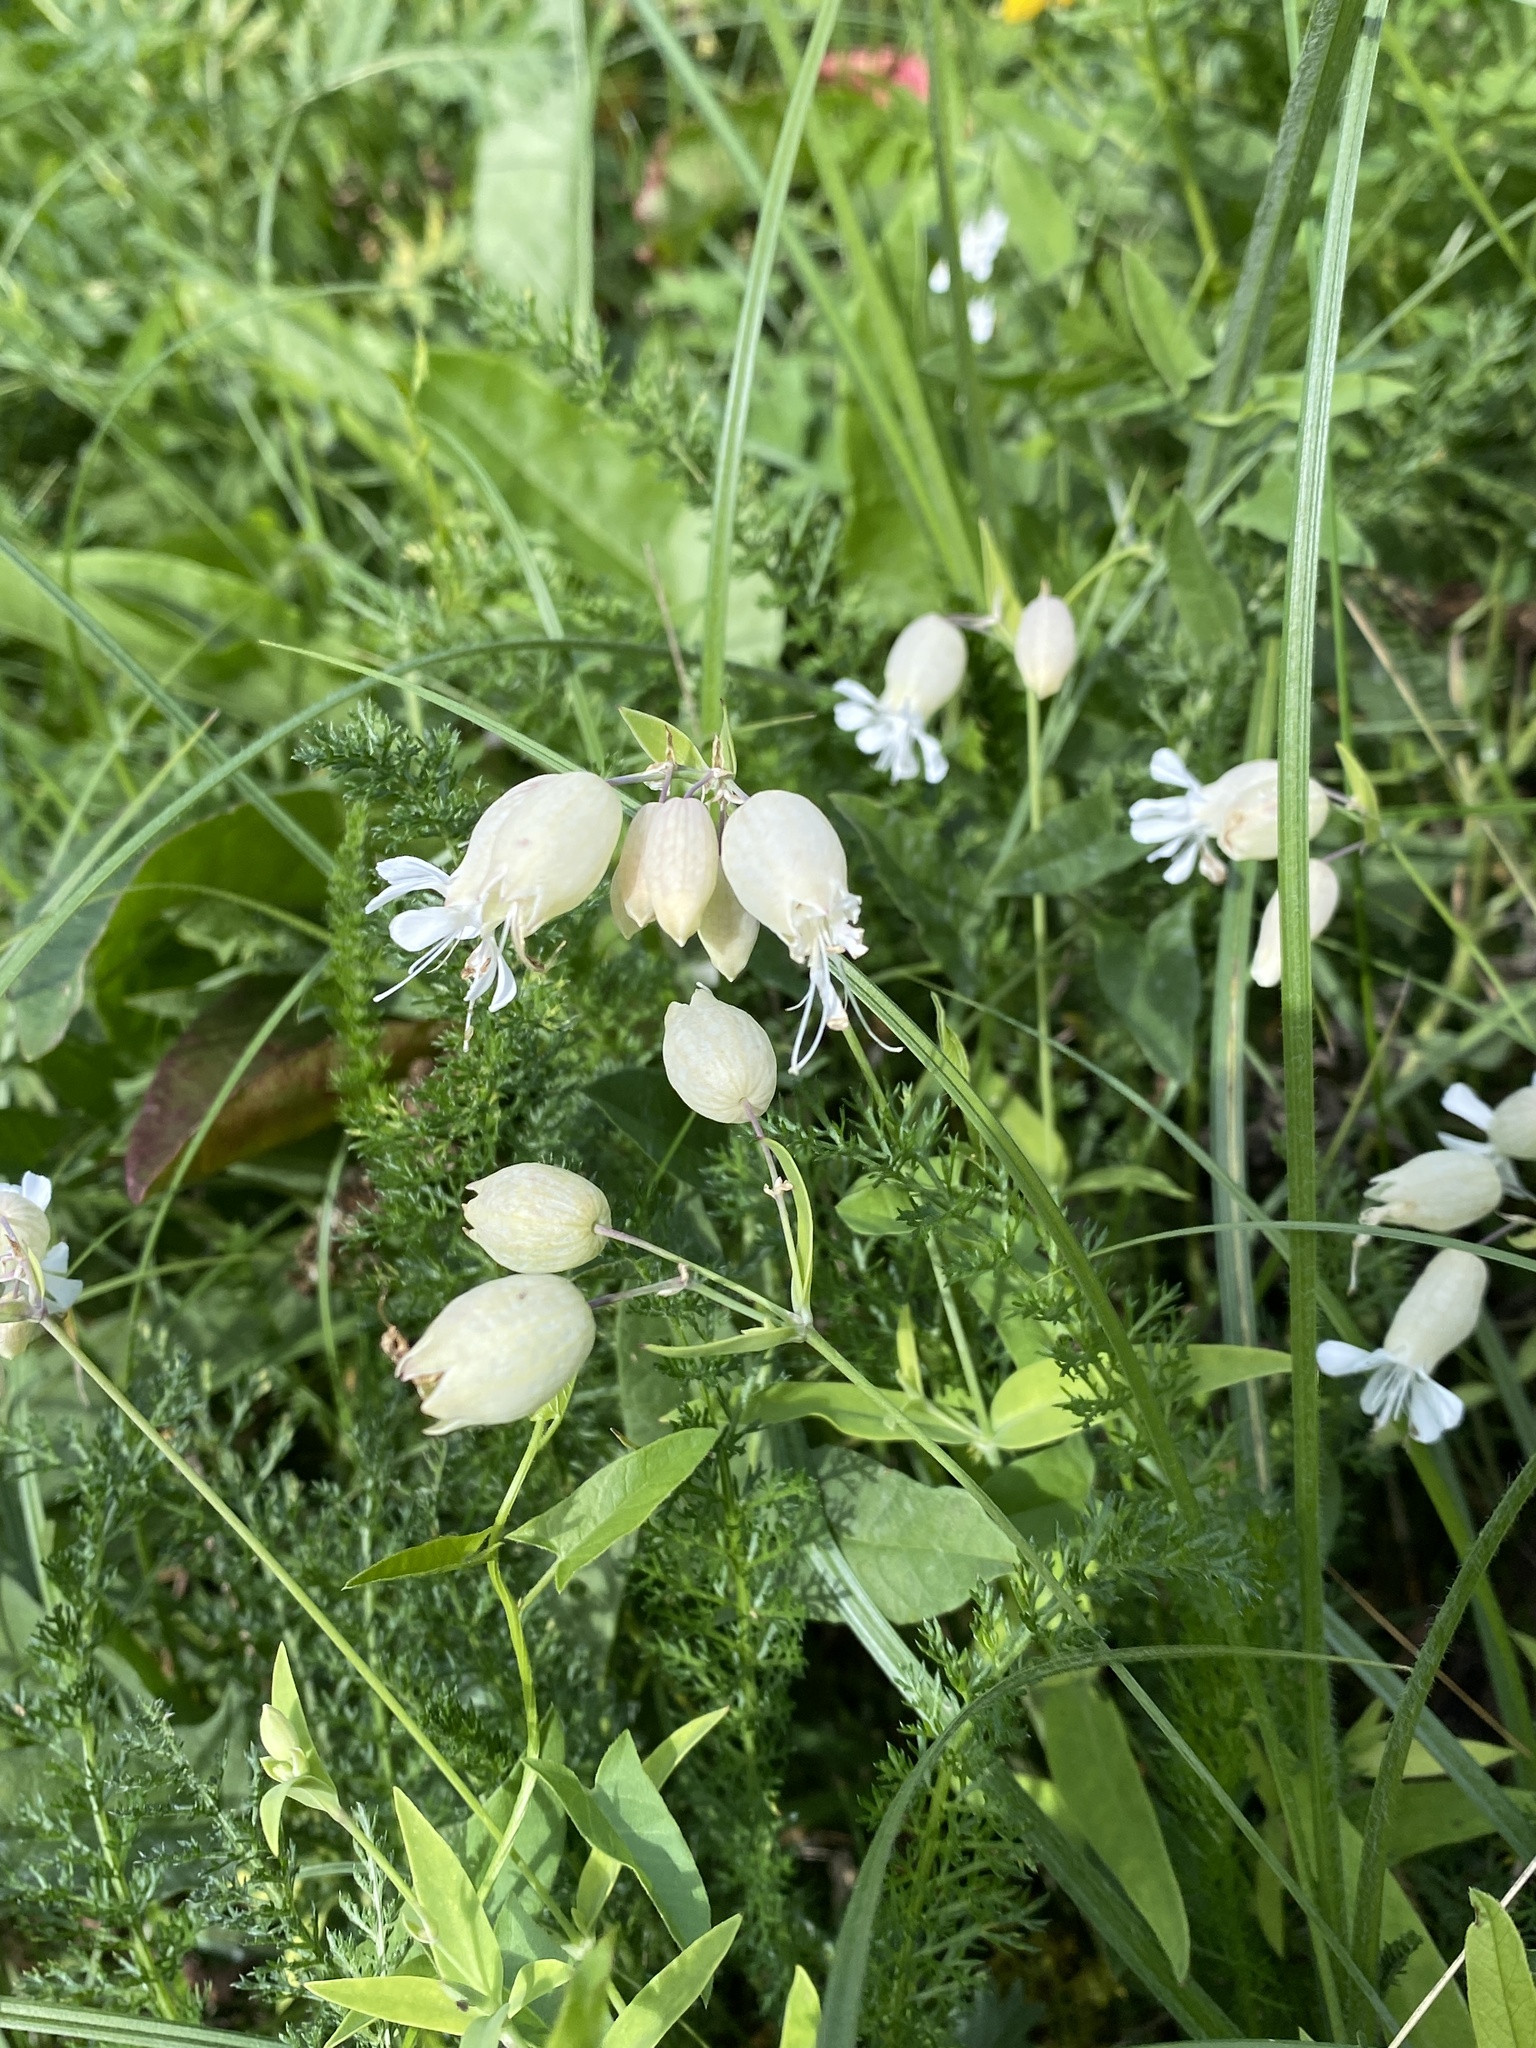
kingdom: Plantae
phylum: Tracheophyta
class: Magnoliopsida
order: Caryophyllales
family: Caryophyllaceae
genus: Silene
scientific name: Silene vulgaris
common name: Bladder campion
